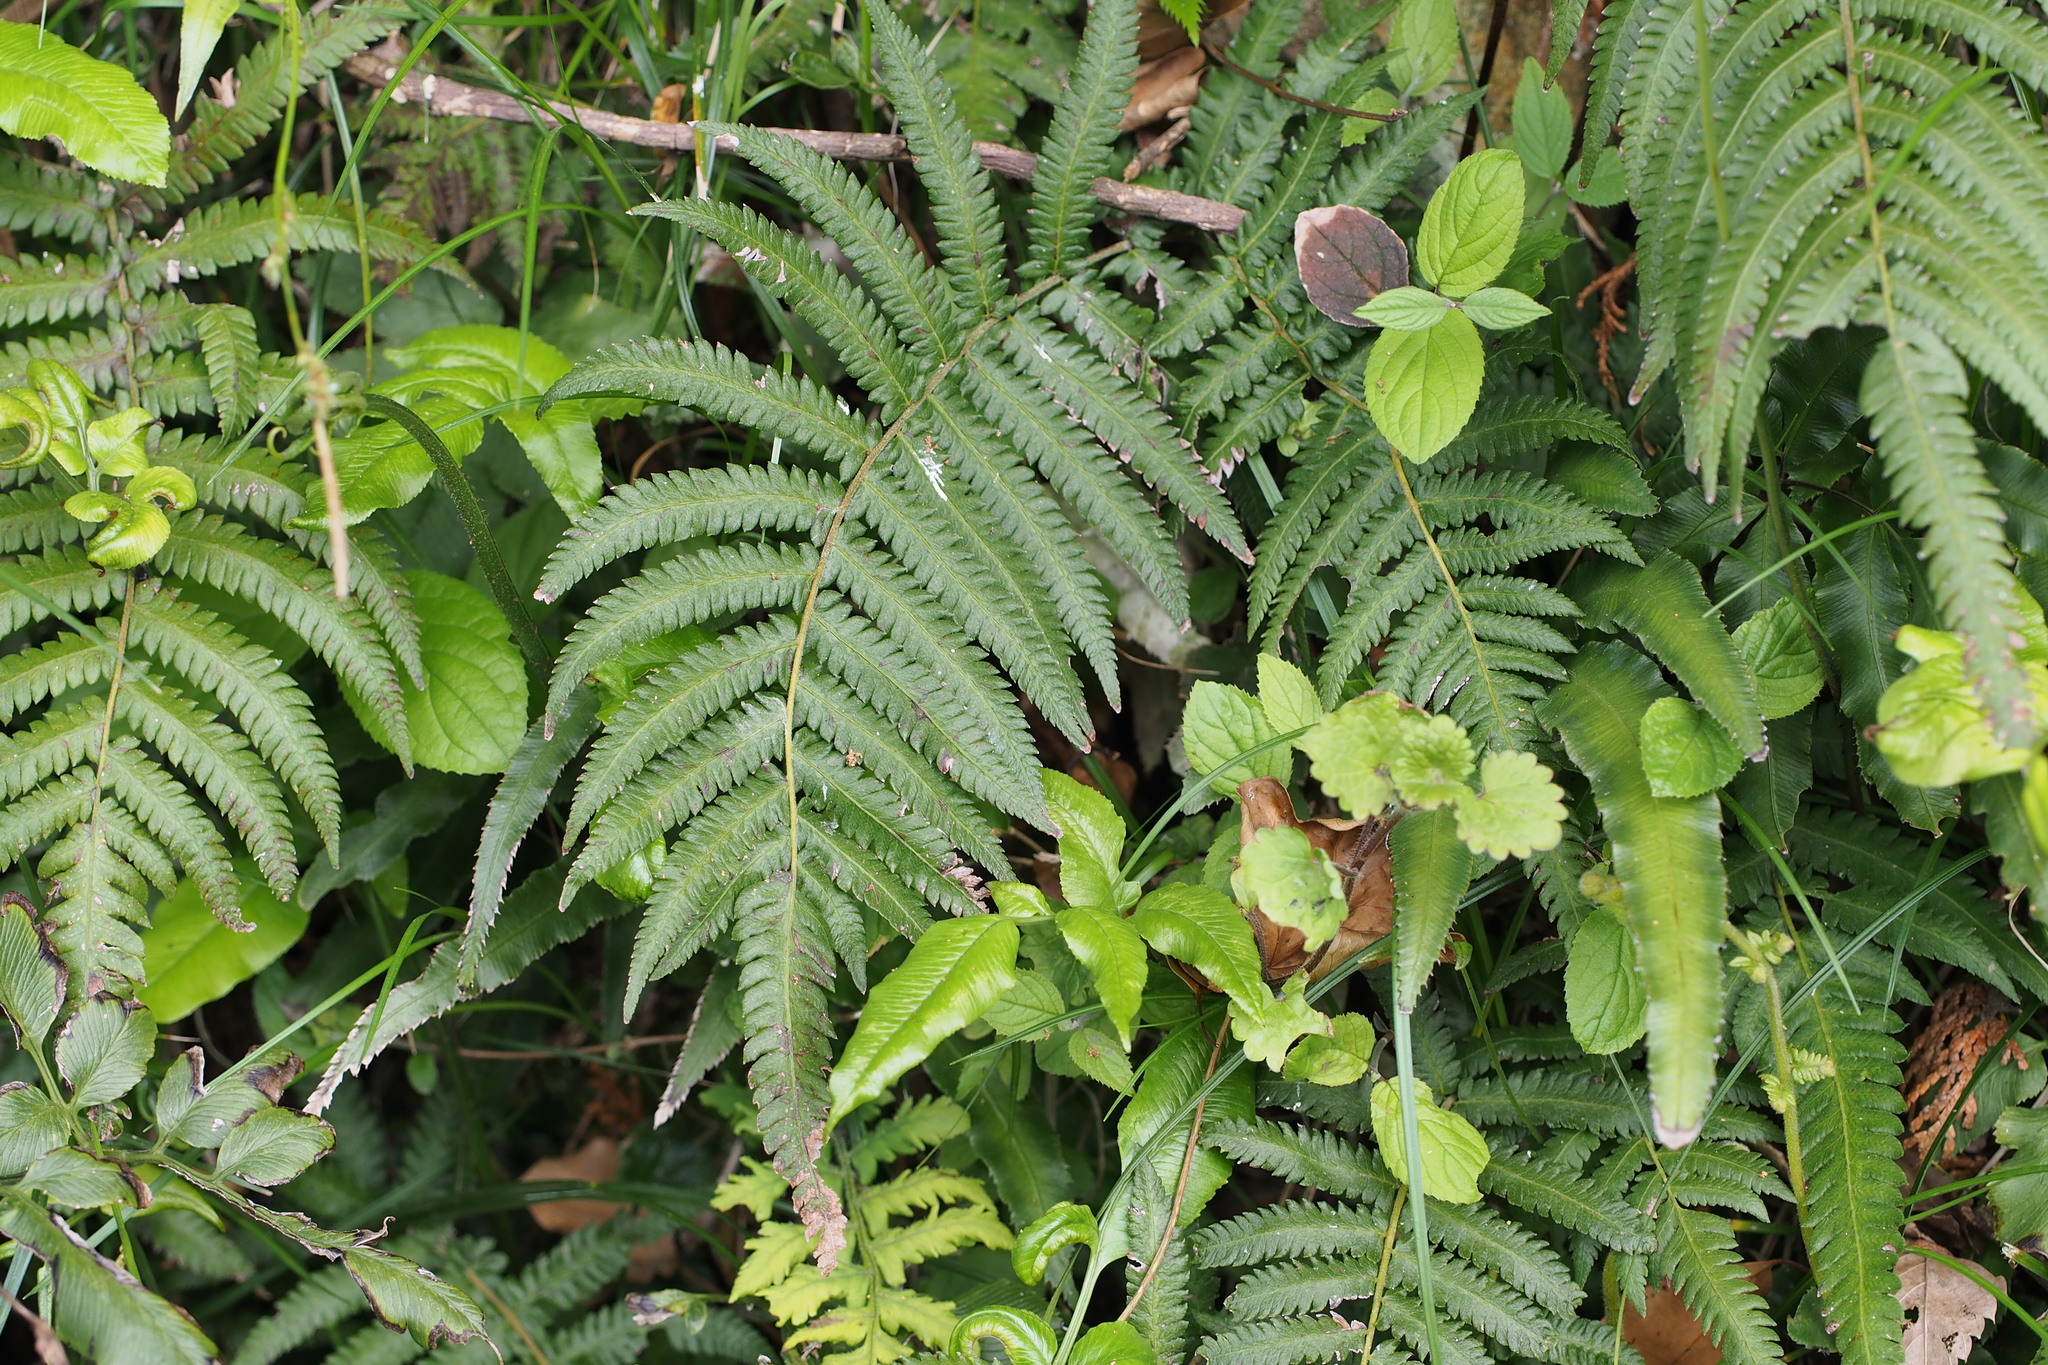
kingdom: Plantae
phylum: Tracheophyta
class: Polypodiopsida
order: Polypodiales
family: Thelypteridaceae
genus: Christella
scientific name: Christella acuminata
